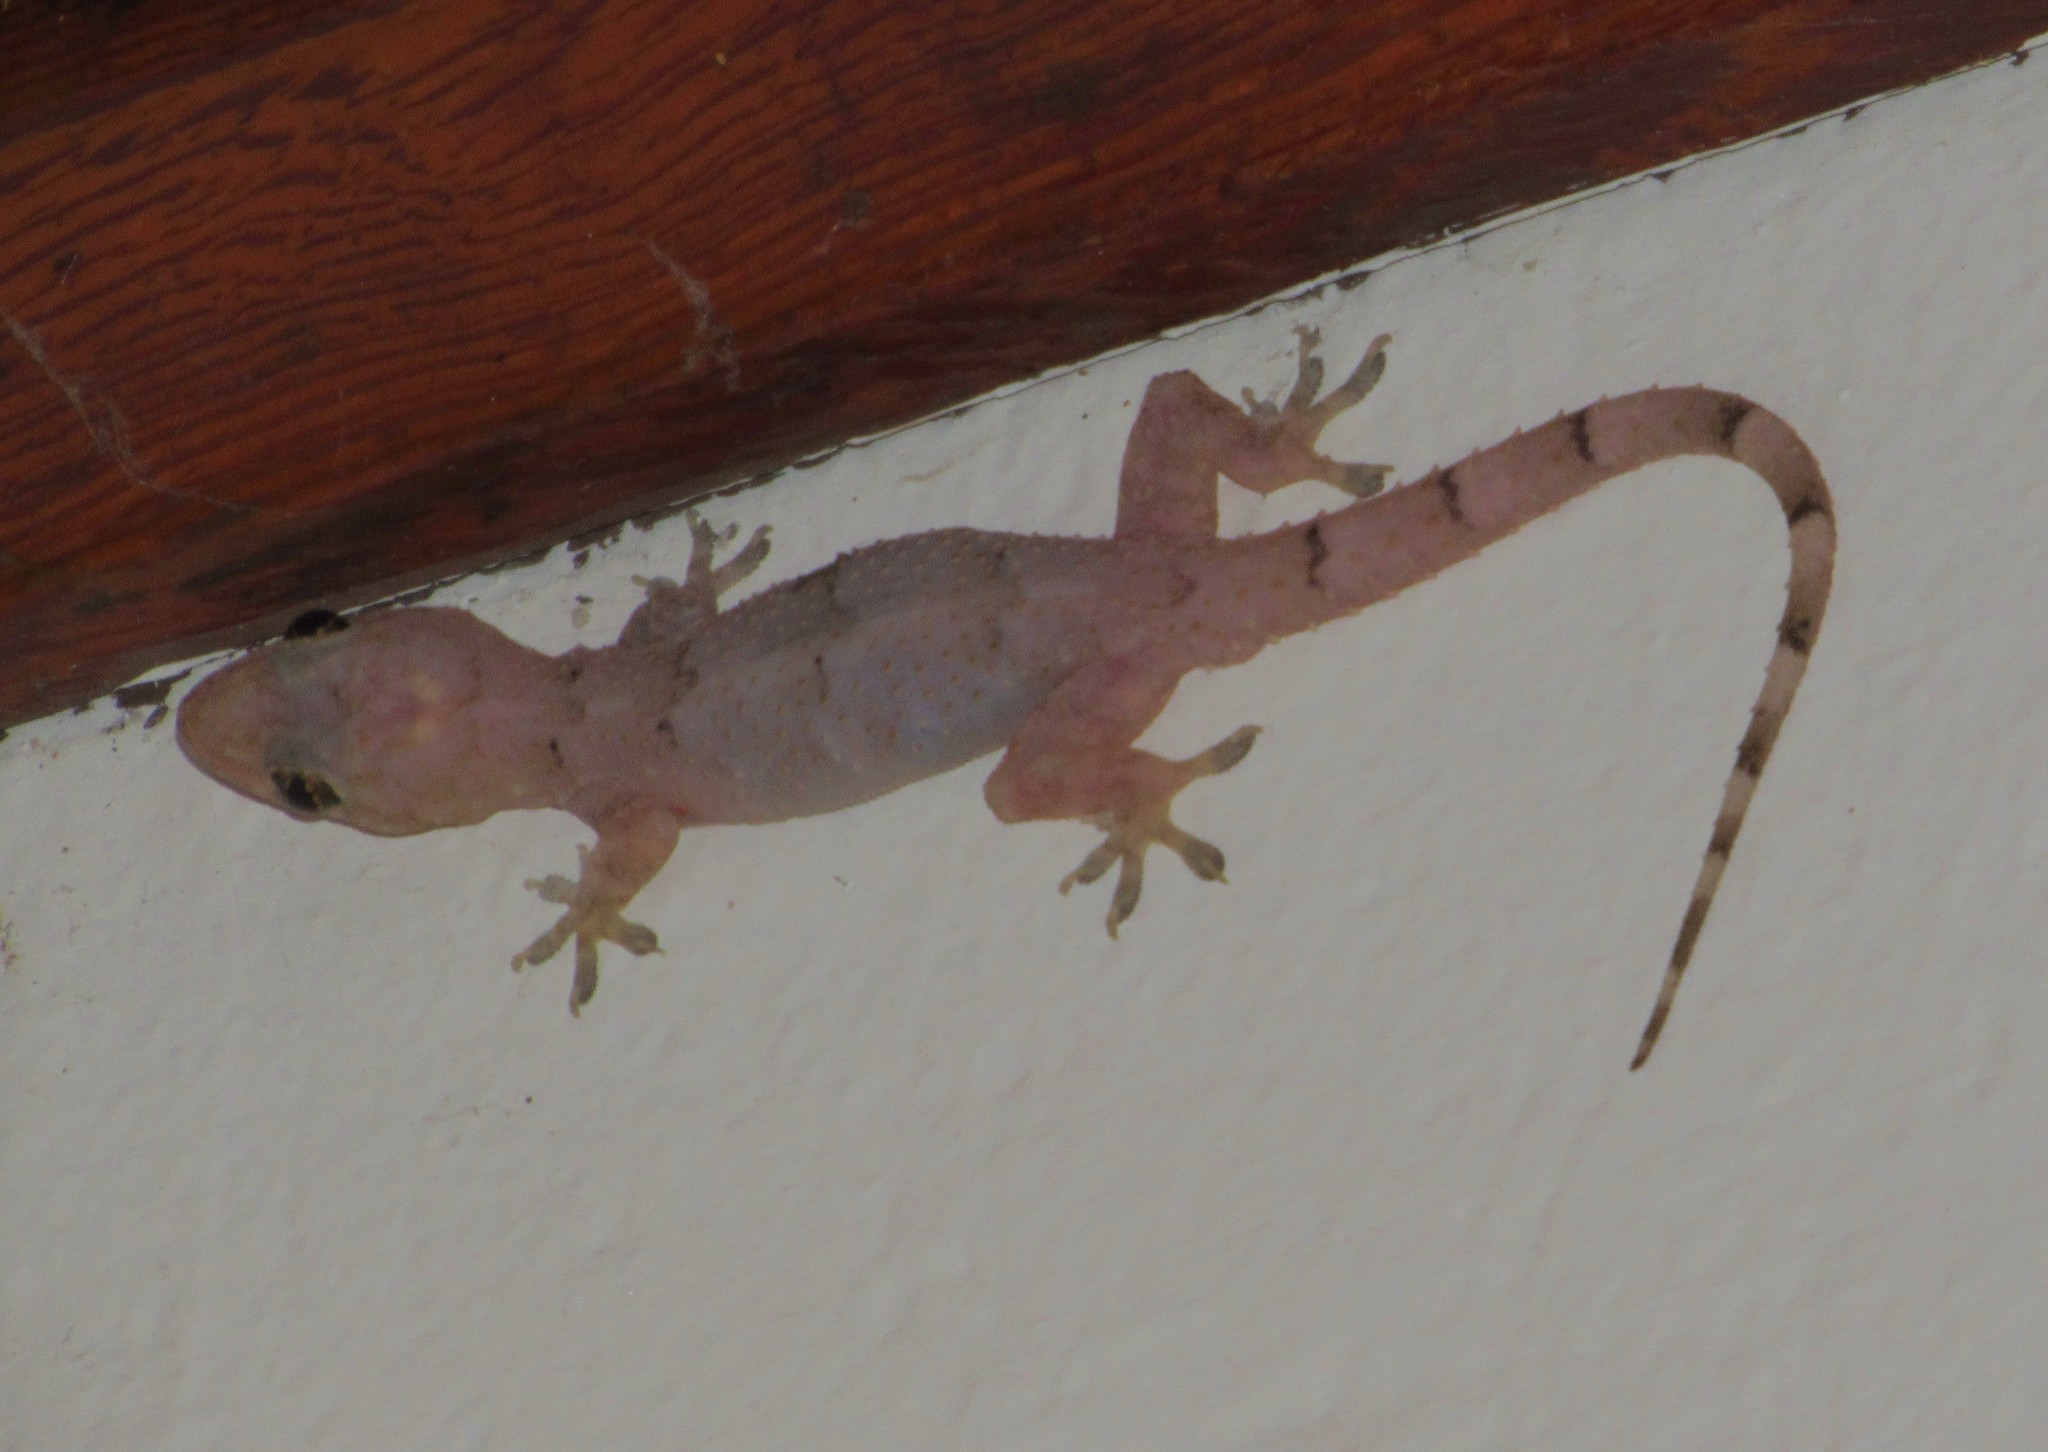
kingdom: Animalia
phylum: Chordata
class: Squamata
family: Gekkonidae
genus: Hemidactylus
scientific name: Hemidactylus mabouia
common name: House gecko
